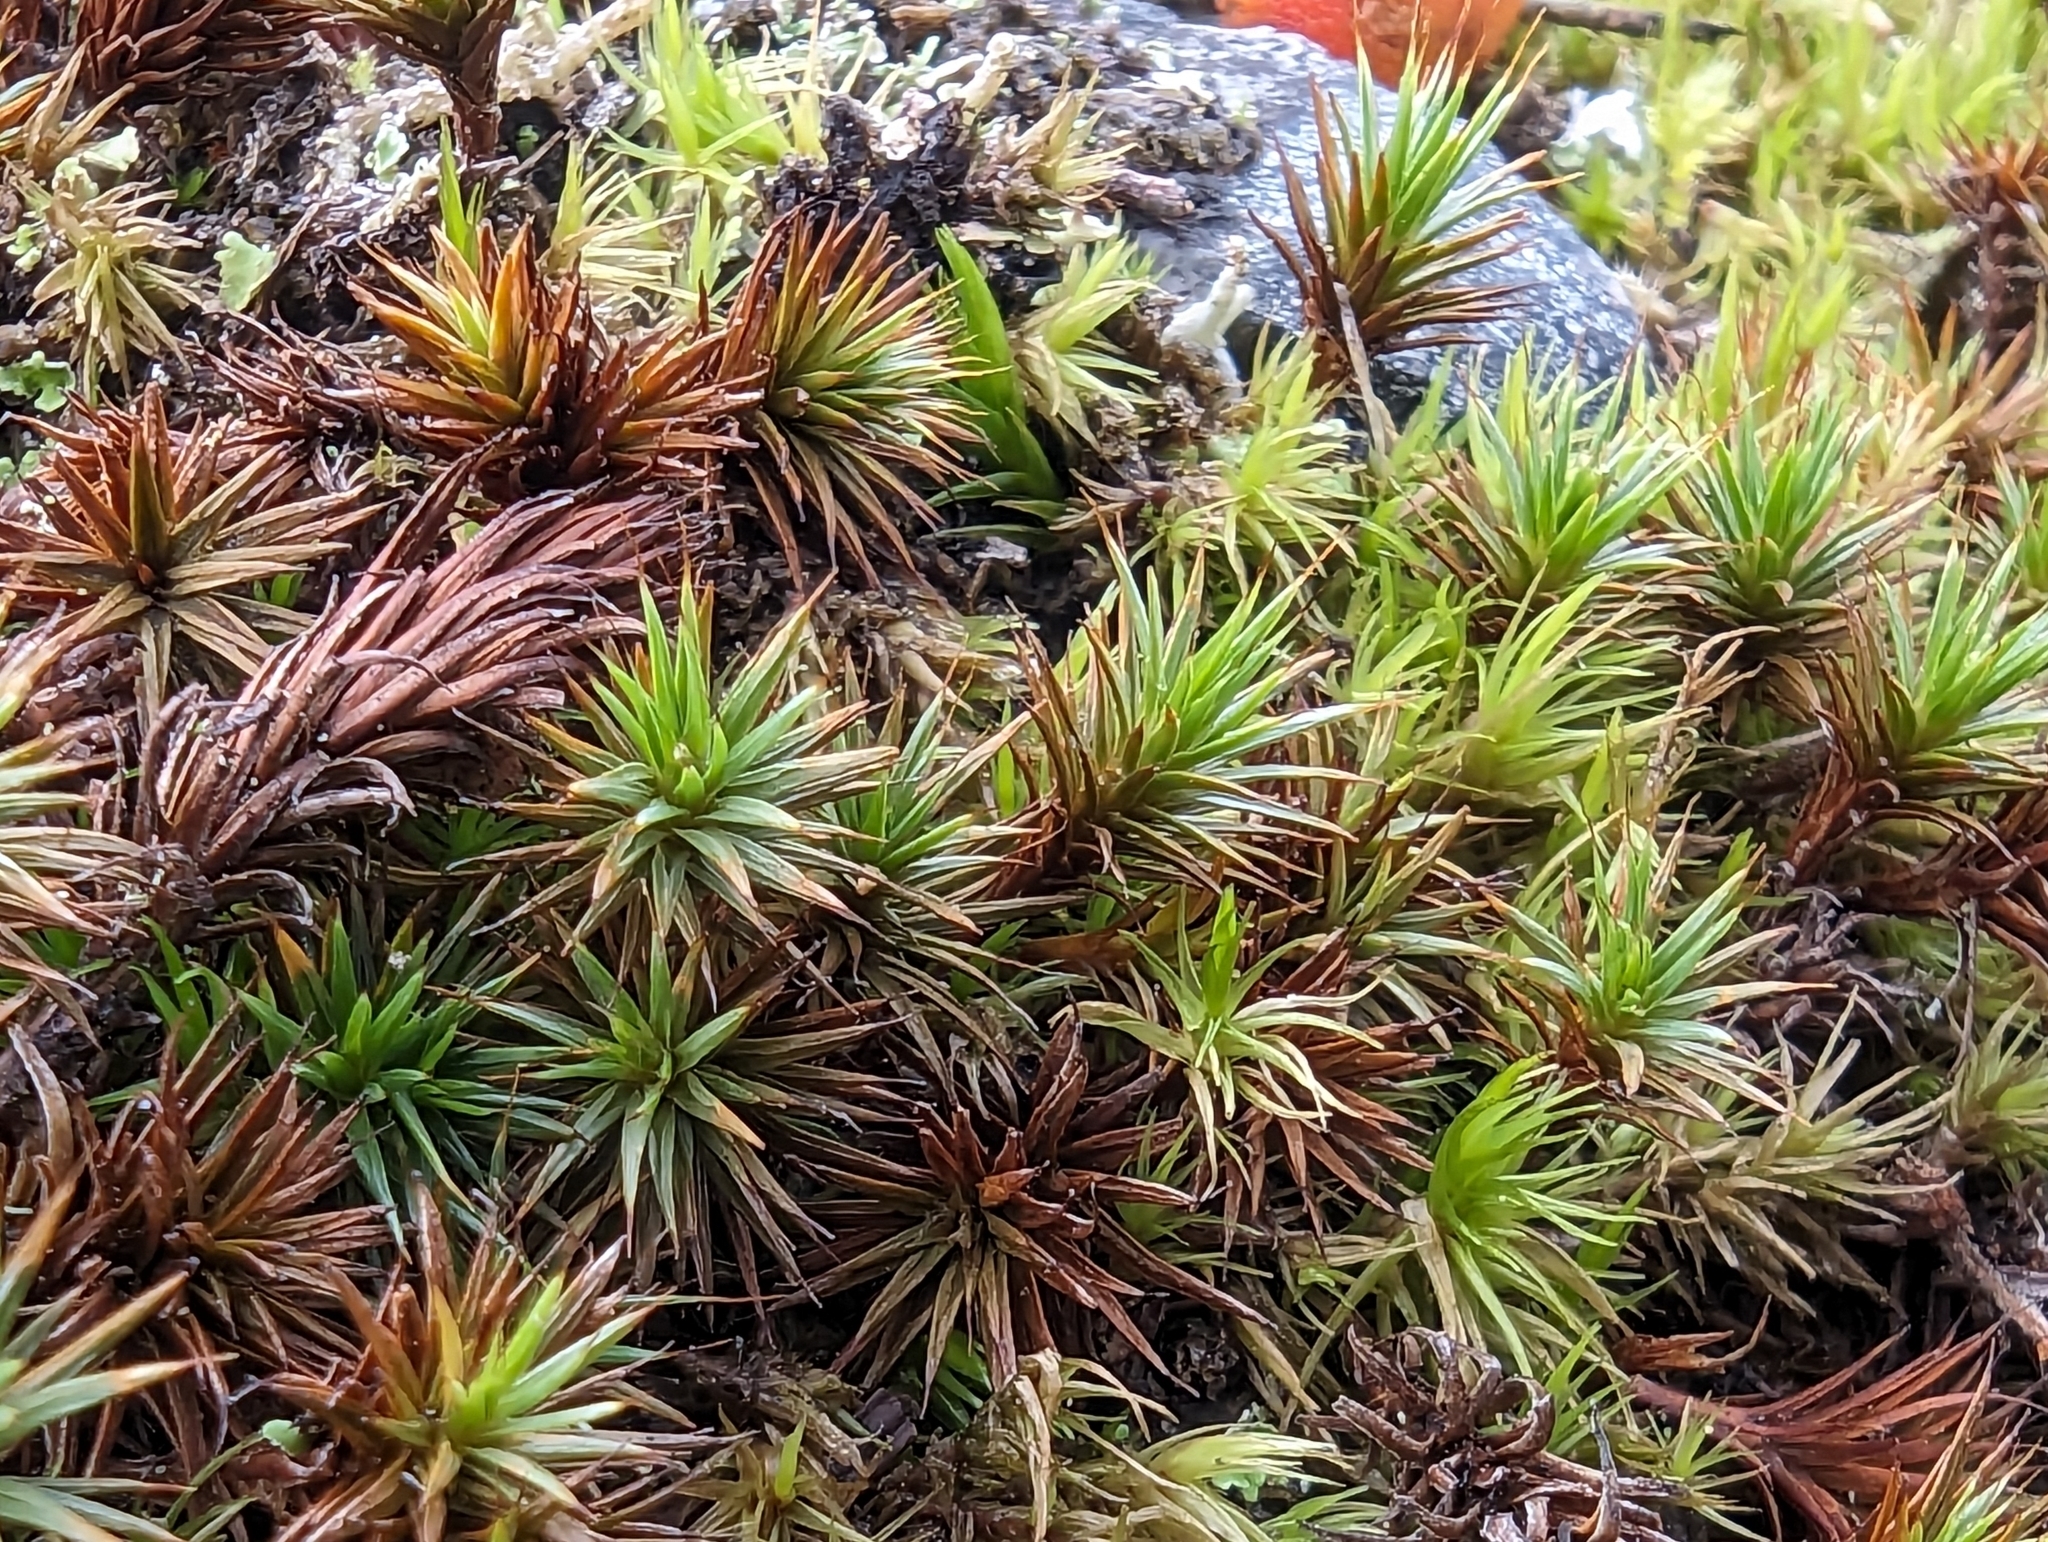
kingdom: Plantae
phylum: Bryophyta
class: Polytrichopsida
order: Polytrichales
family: Polytrichaceae
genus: Polytrichum
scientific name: Polytrichum juniperinum
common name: Juniper haircap moss
